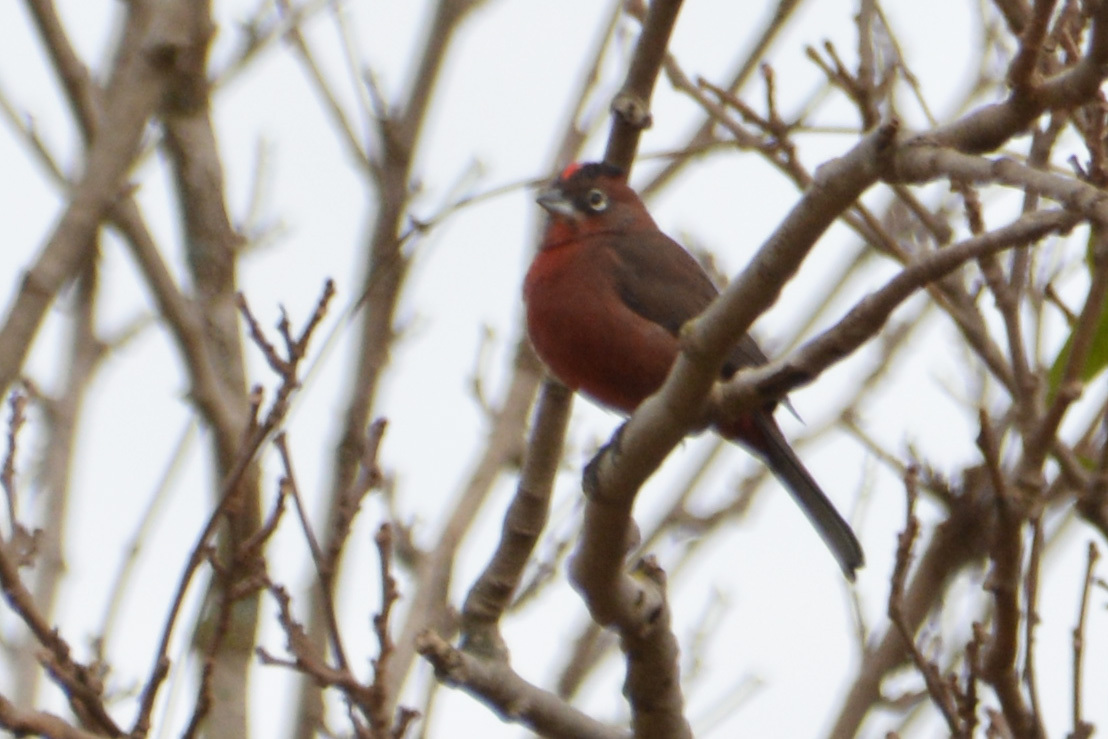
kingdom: Animalia
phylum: Chordata
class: Aves
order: Passeriformes
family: Thraupidae
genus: Coryphospingus
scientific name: Coryphospingus cucullatus
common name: Red pileated finch
